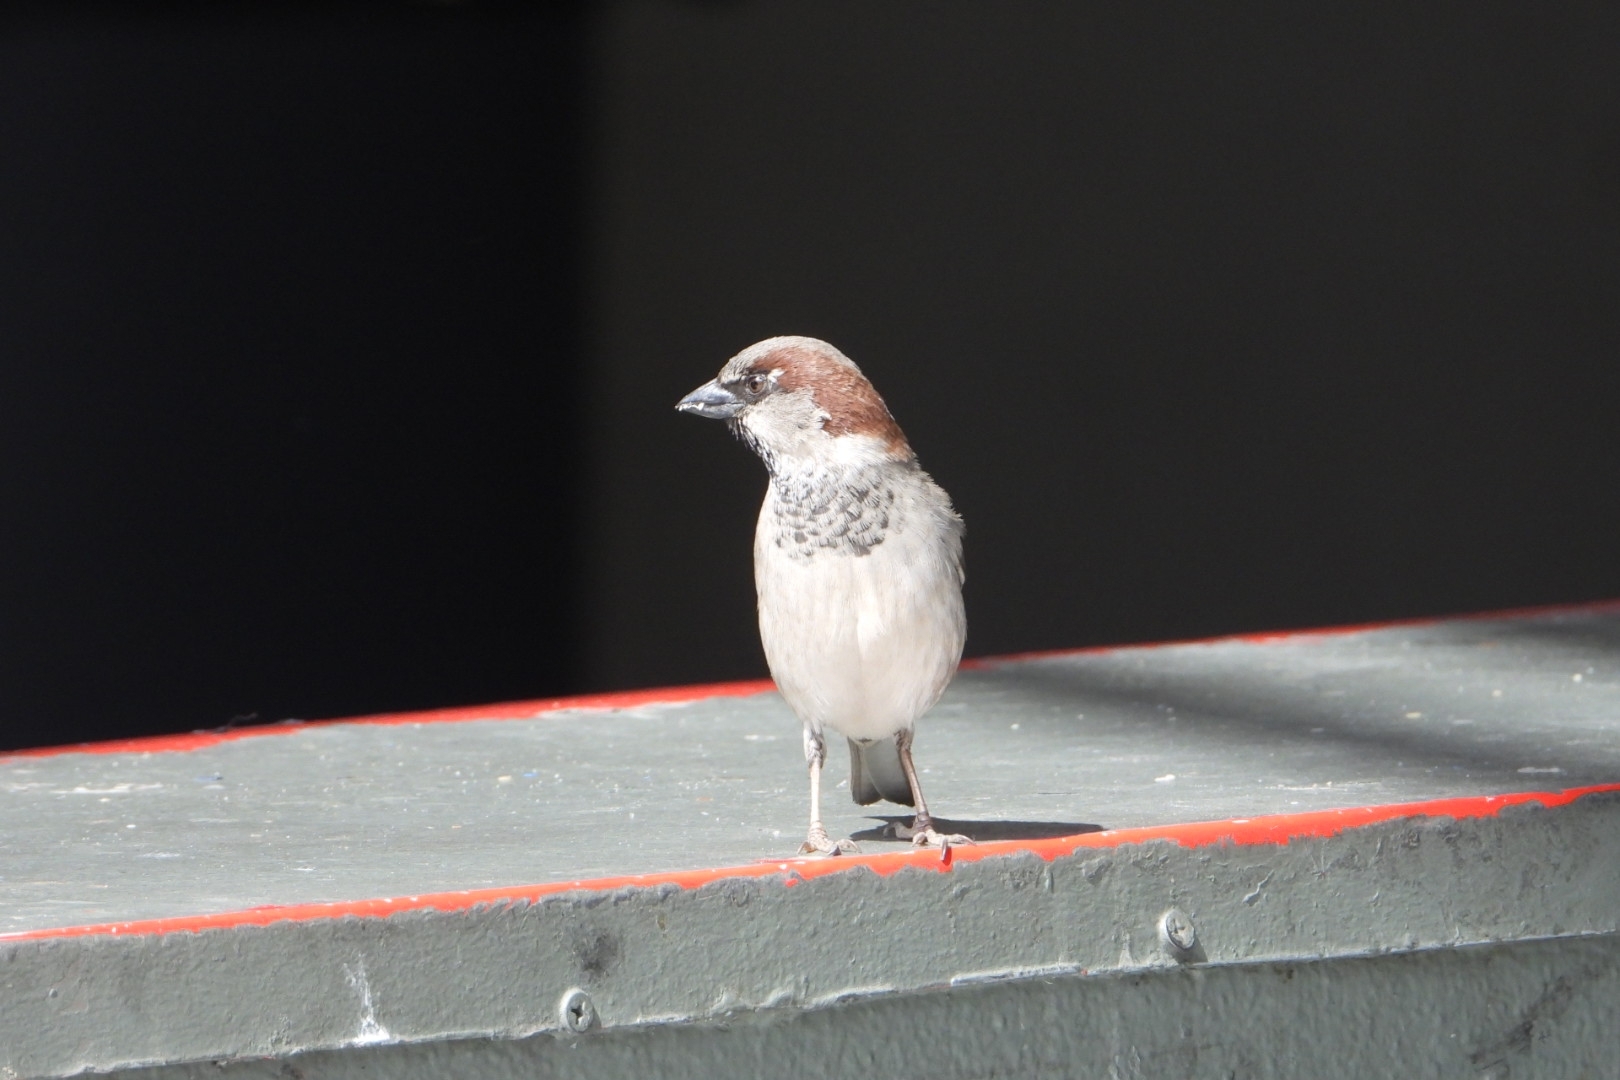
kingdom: Animalia
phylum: Chordata
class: Aves
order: Passeriformes
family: Passeridae
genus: Passer
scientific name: Passer domesticus
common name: House sparrow
